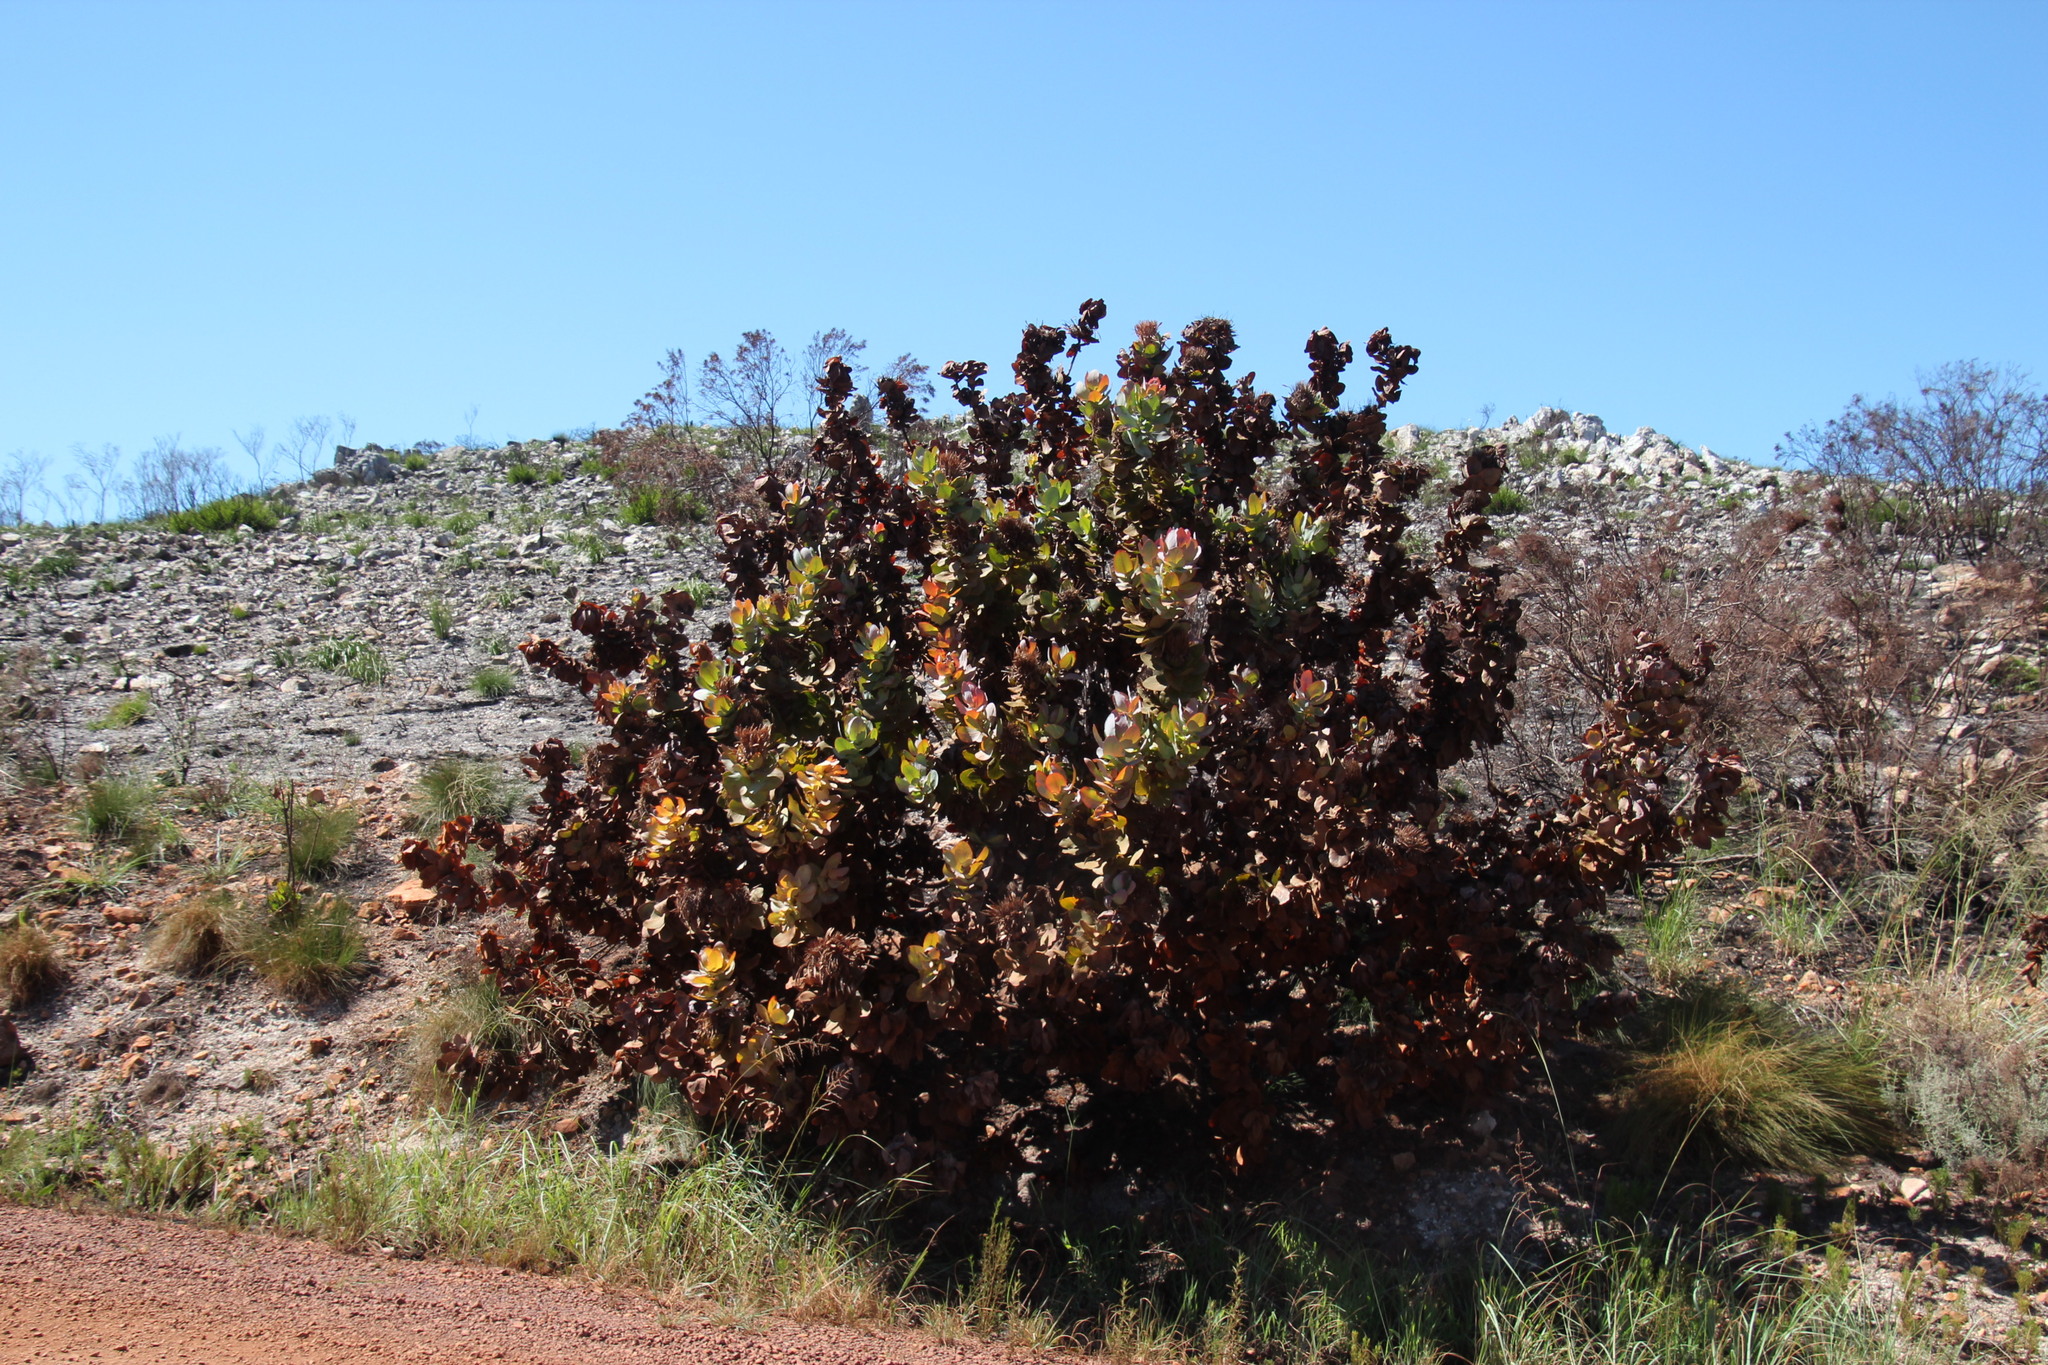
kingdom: Plantae
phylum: Tracheophyta
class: Magnoliopsida
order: Proteales
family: Proteaceae
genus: Protea
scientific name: Protea eximia
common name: Broad-leaved sugarbush
